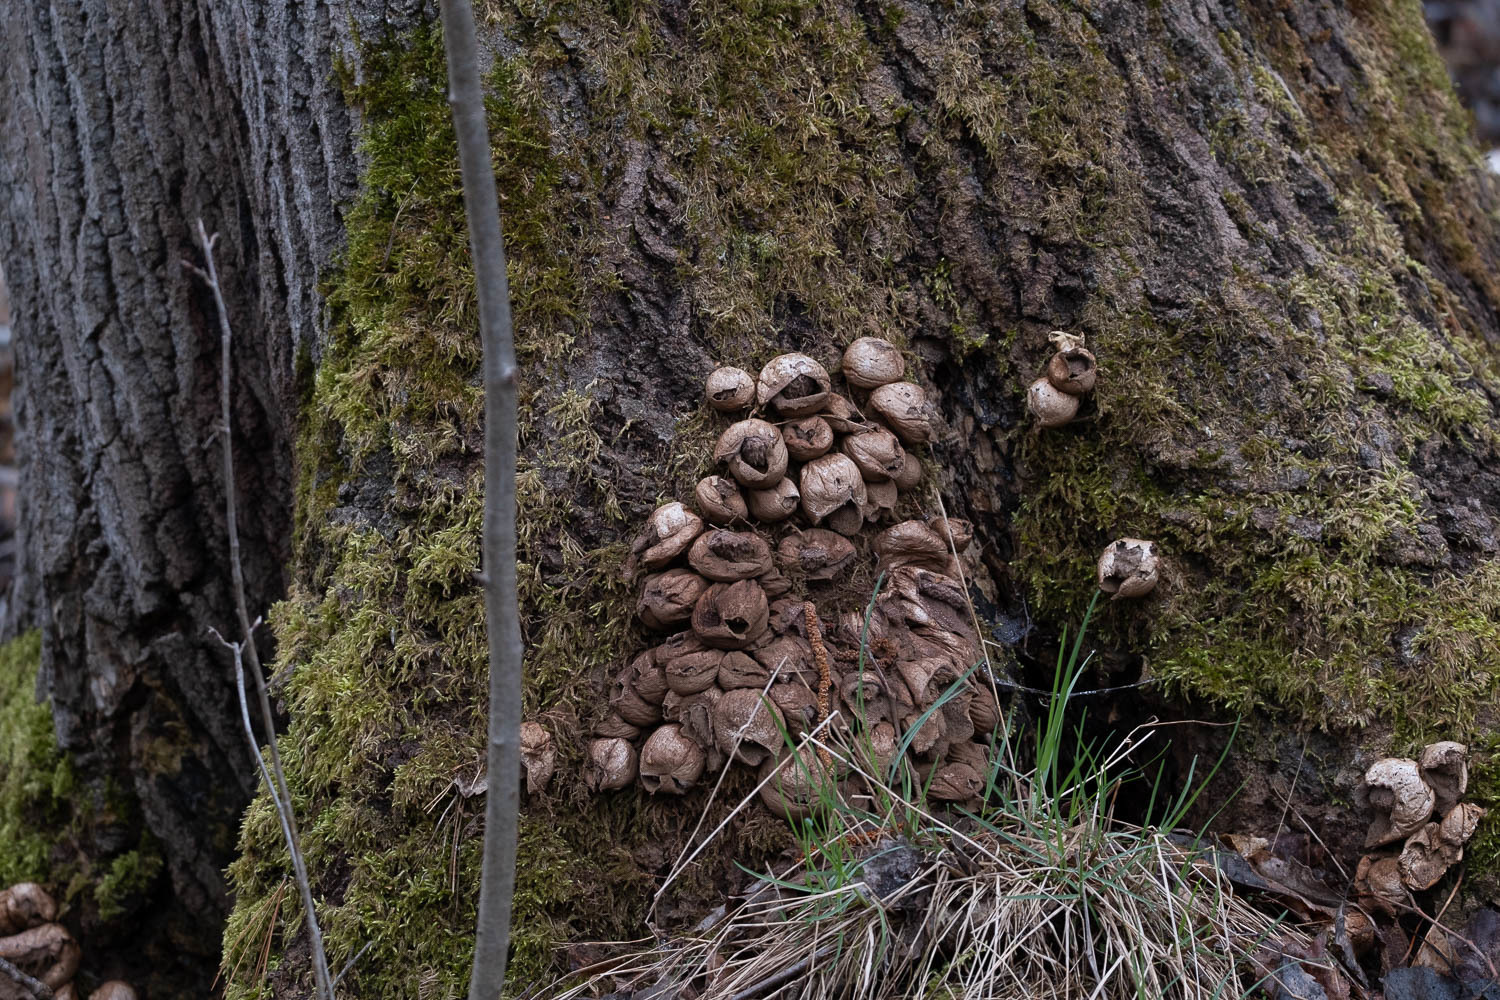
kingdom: Fungi
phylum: Basidiomycota
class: Agaricomycetes
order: Agaricales
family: Lycoperdaceae
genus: Apioperdon
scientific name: Apioperdon pyriforme
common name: Pear-shaped puffball
